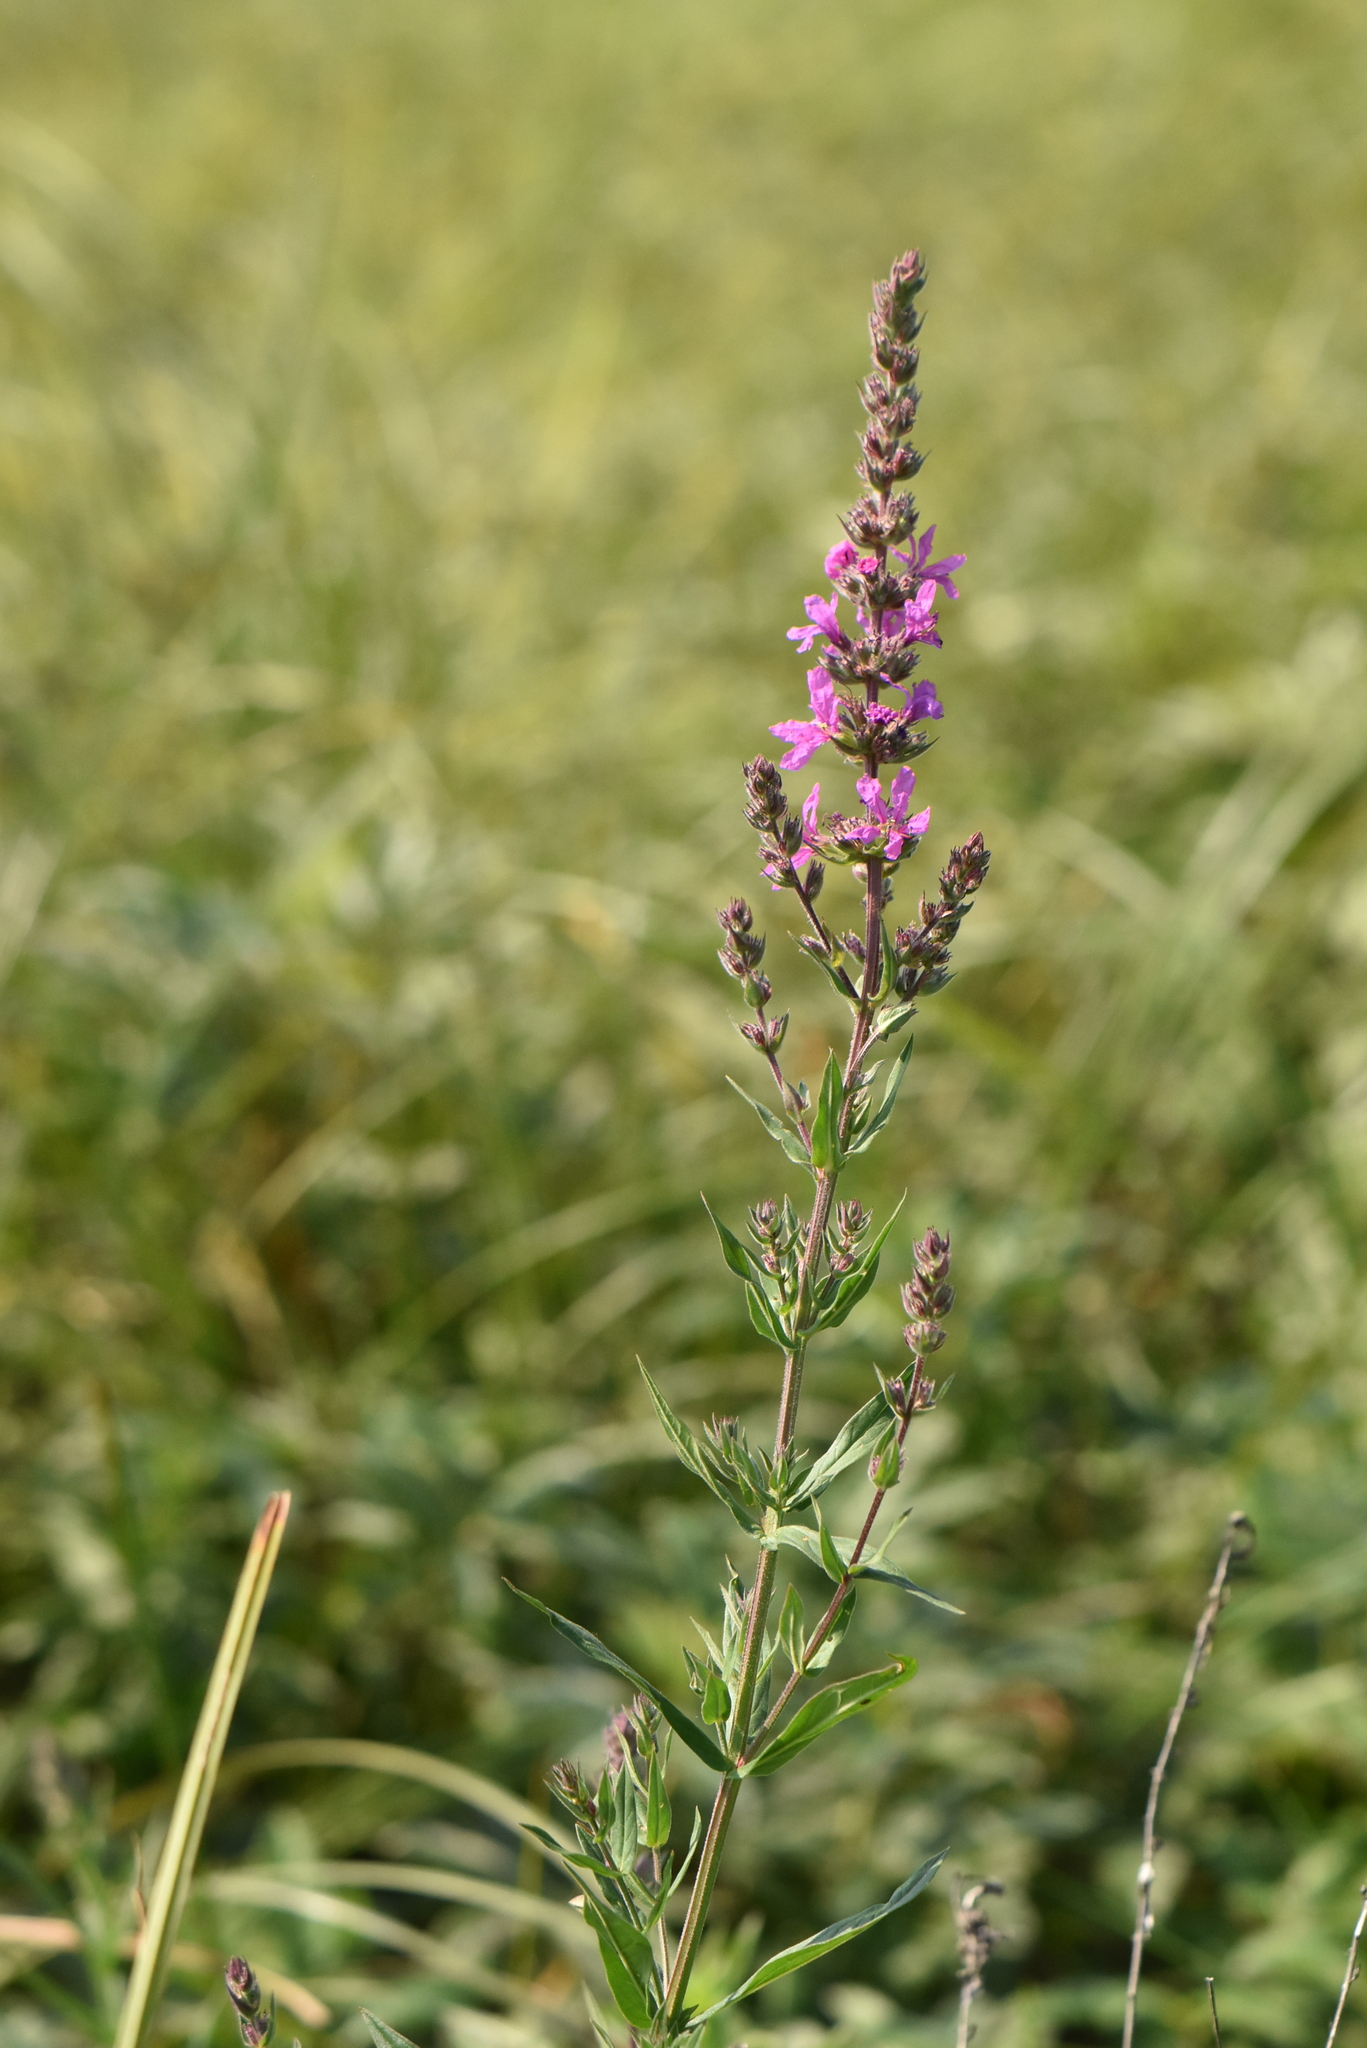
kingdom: Plantae
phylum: Tracheophyta
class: Magnoliopsida
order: Myrtales
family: Lythraceae
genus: Lythrum
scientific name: Lythrum salicaria
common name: Purple loosestrife
